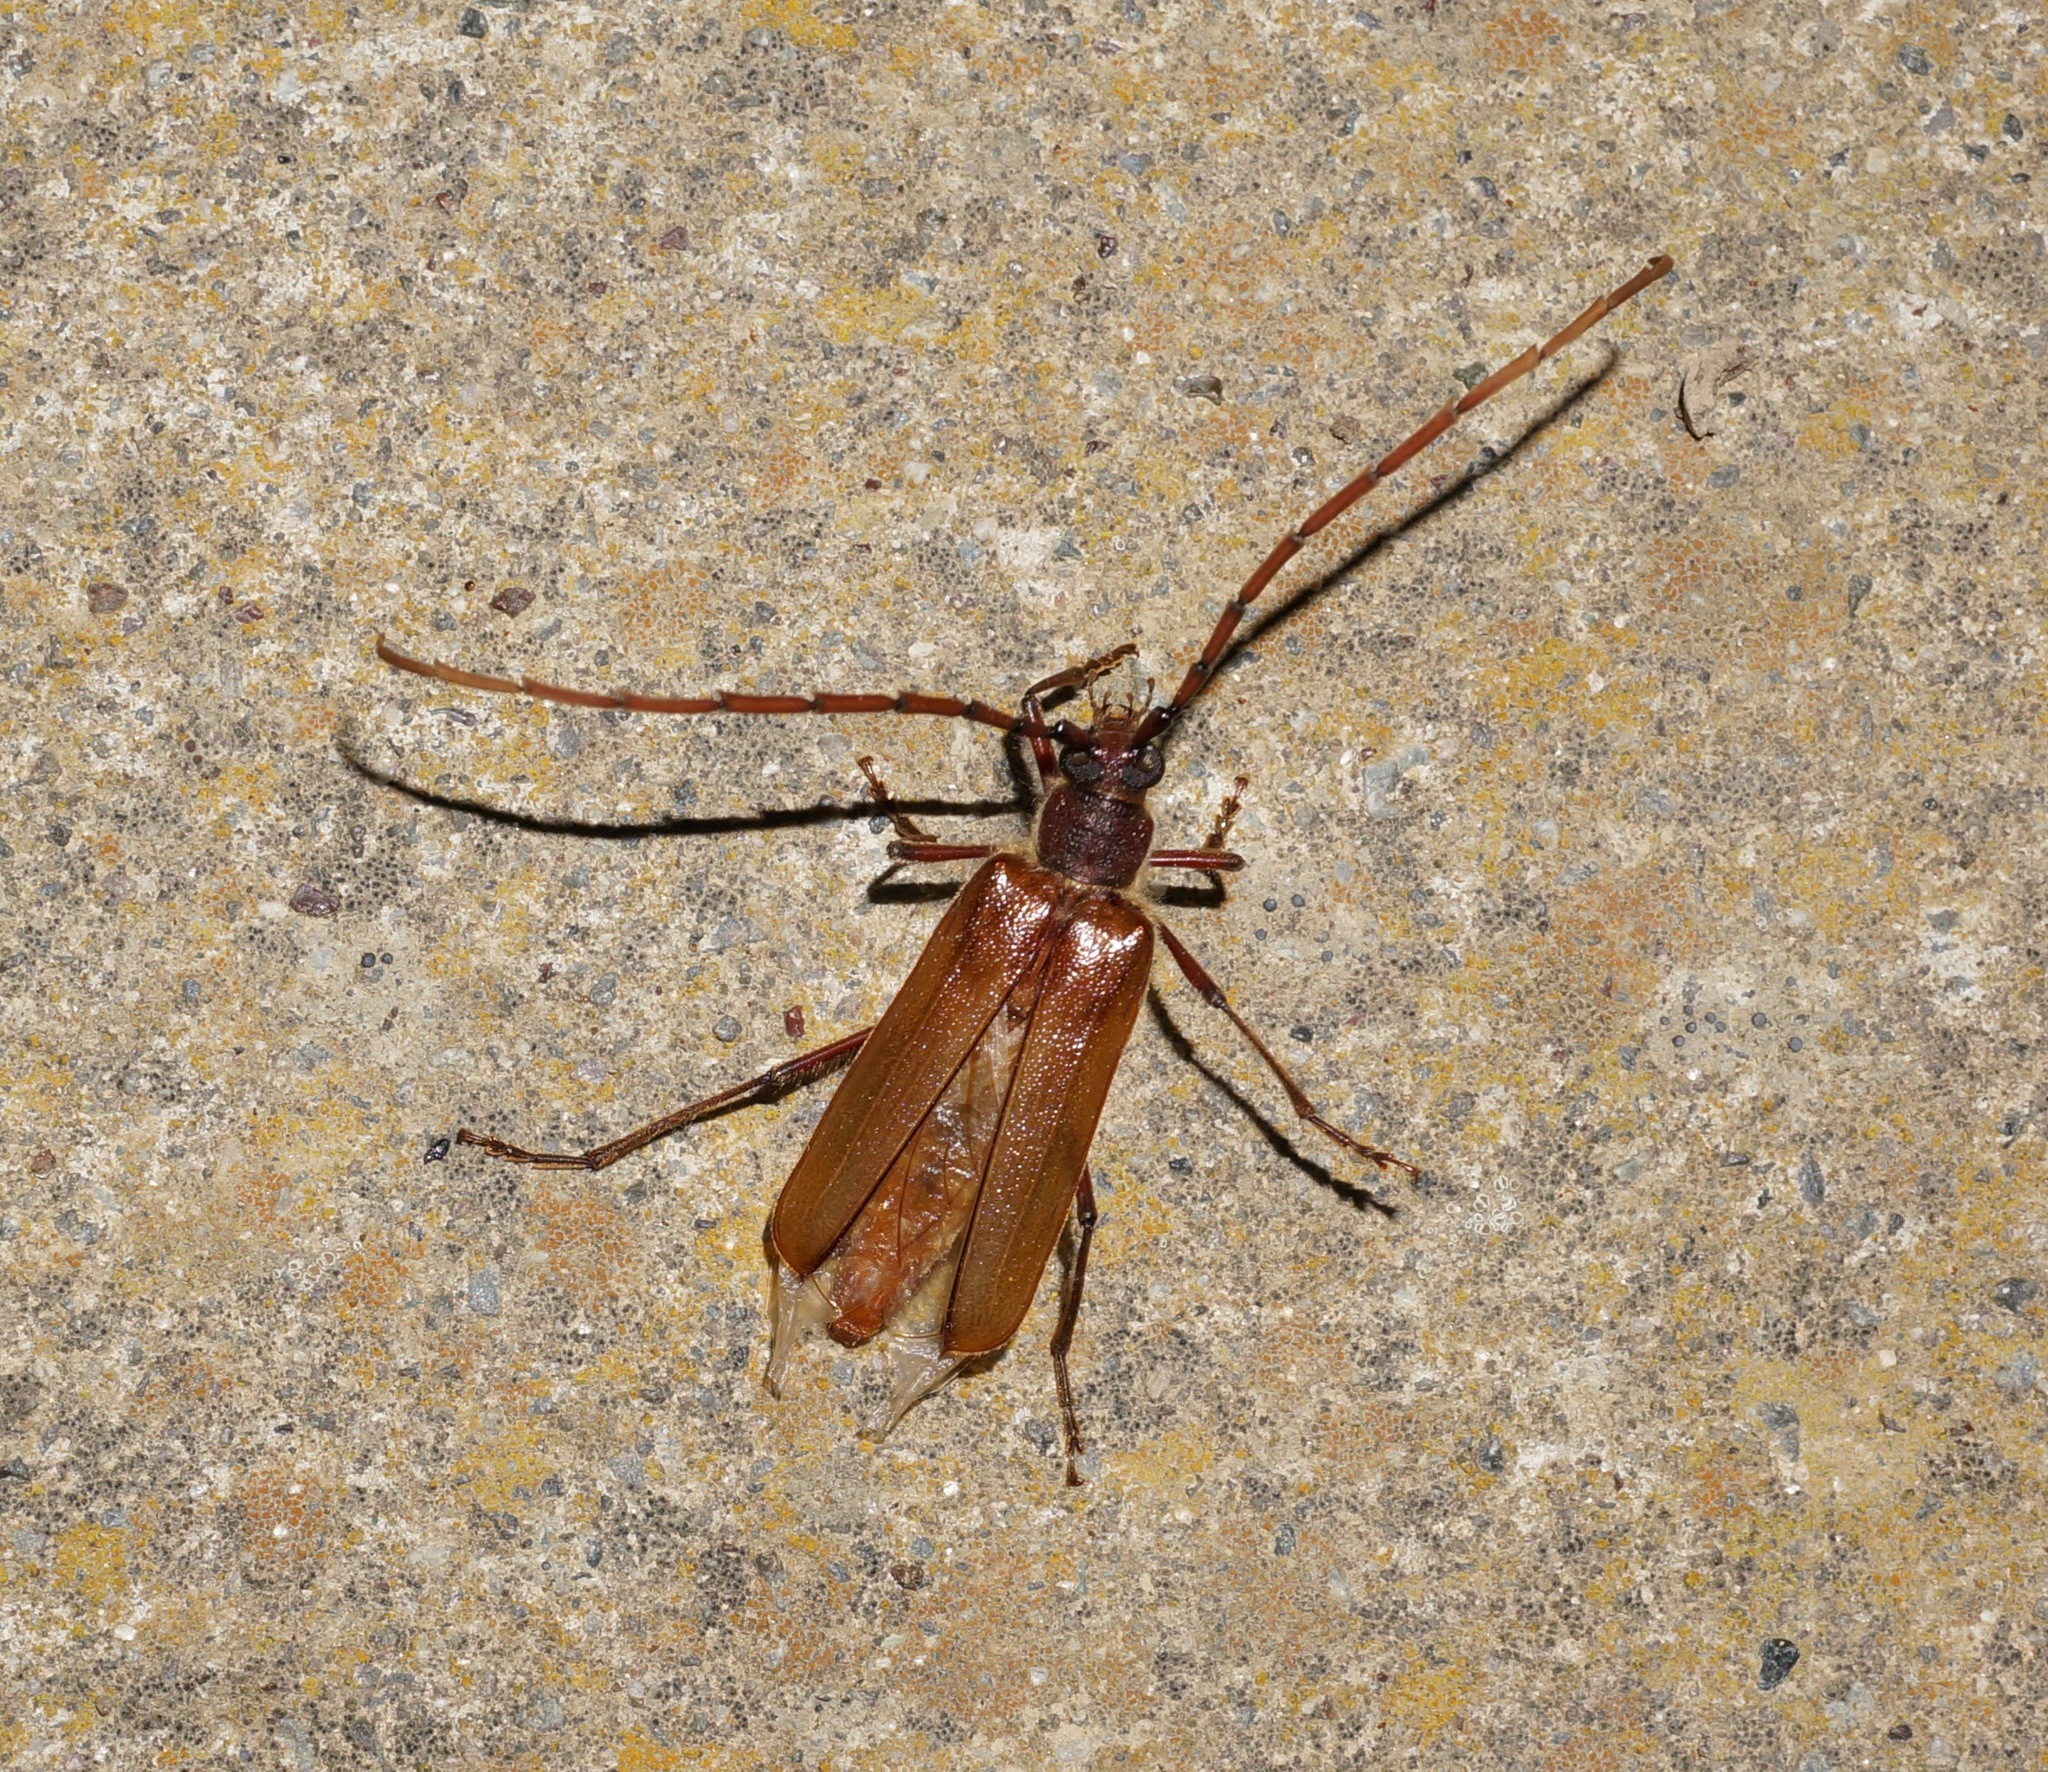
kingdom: Animalia
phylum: Arthropoda
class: Insecta
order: Coleoptera
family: Cerambycidae
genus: Ochrocydus
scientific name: Ochrocydus huttoni
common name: Kanuka longhorn
